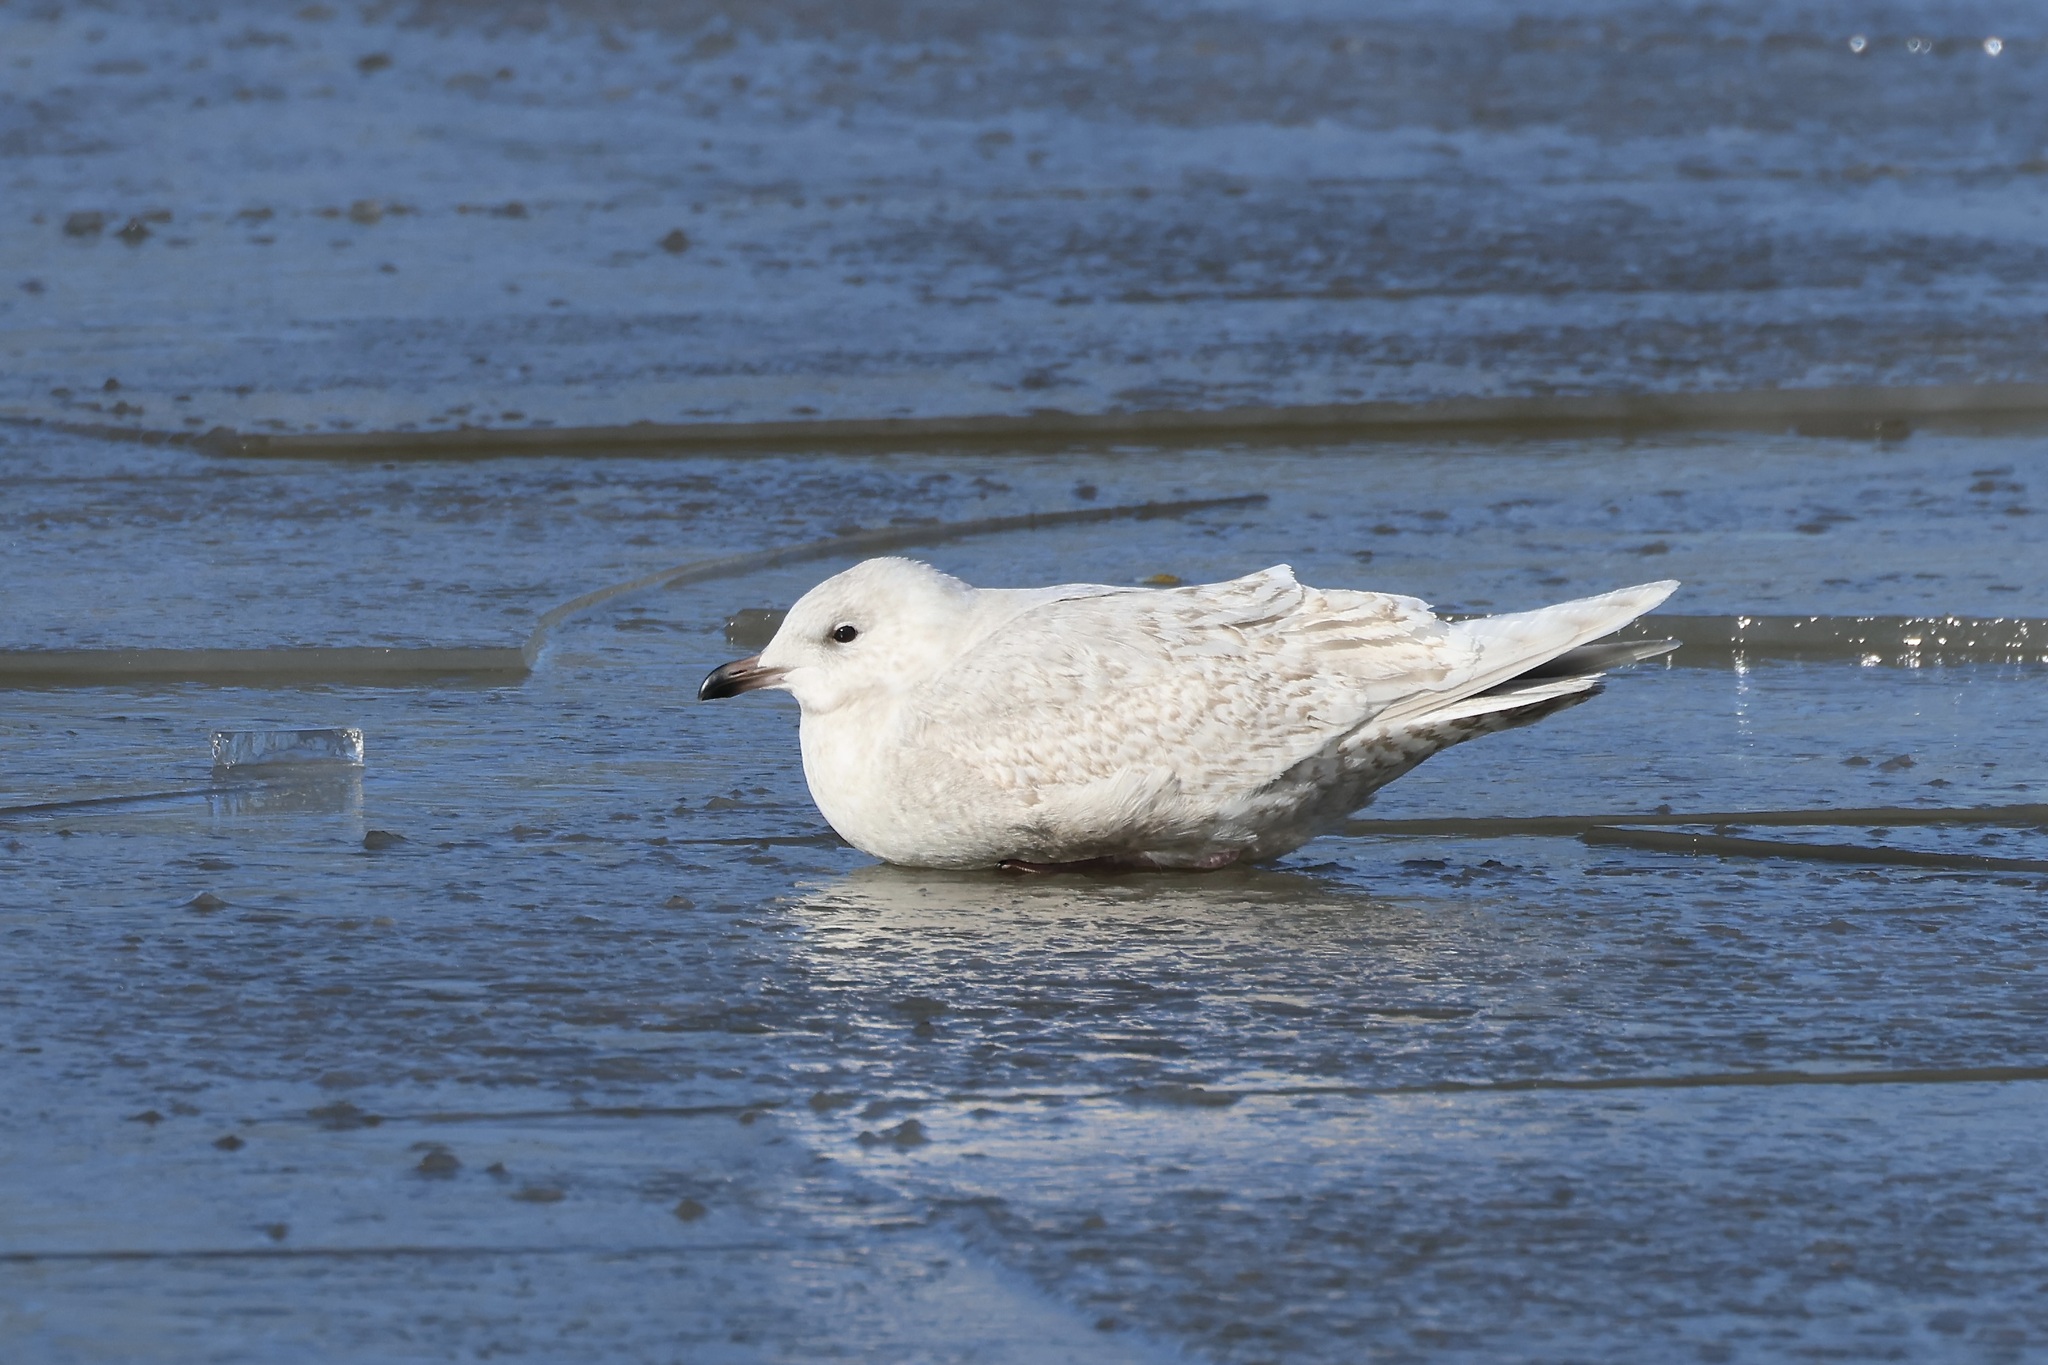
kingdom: Animalia
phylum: Chordata
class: Aves
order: Charadriiformes
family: Laridae
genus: Larus
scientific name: Larus glaucoides
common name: Iceland gull
